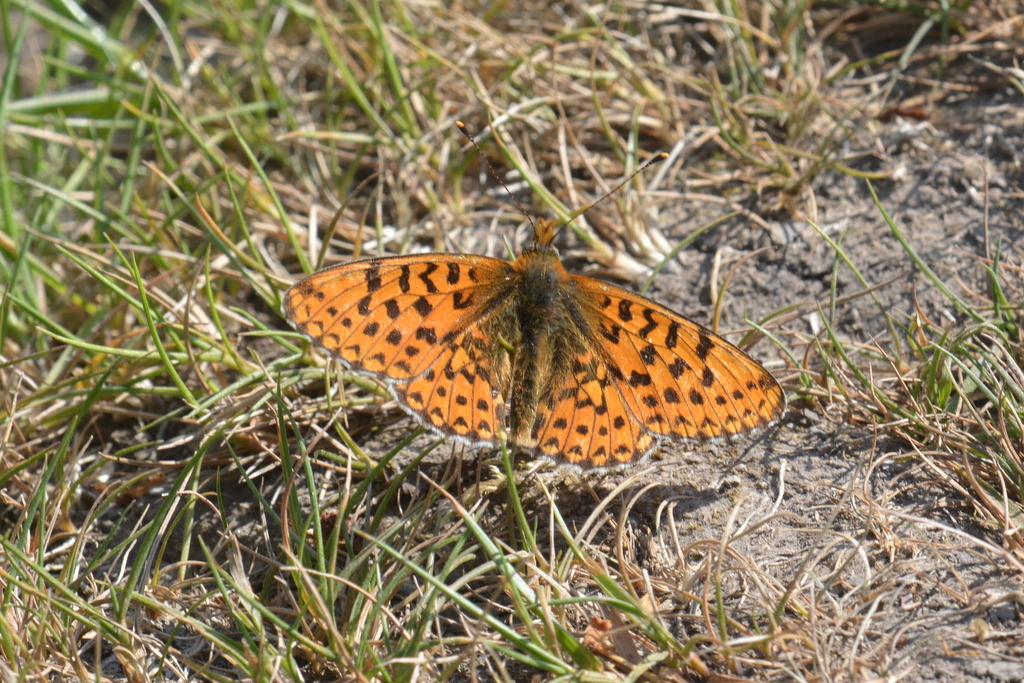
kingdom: Animalia
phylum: Arthropoda
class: Insecta
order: Lepidoptera
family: Nymphalidae
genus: Clossiana
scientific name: Clossiana euphrosyne
